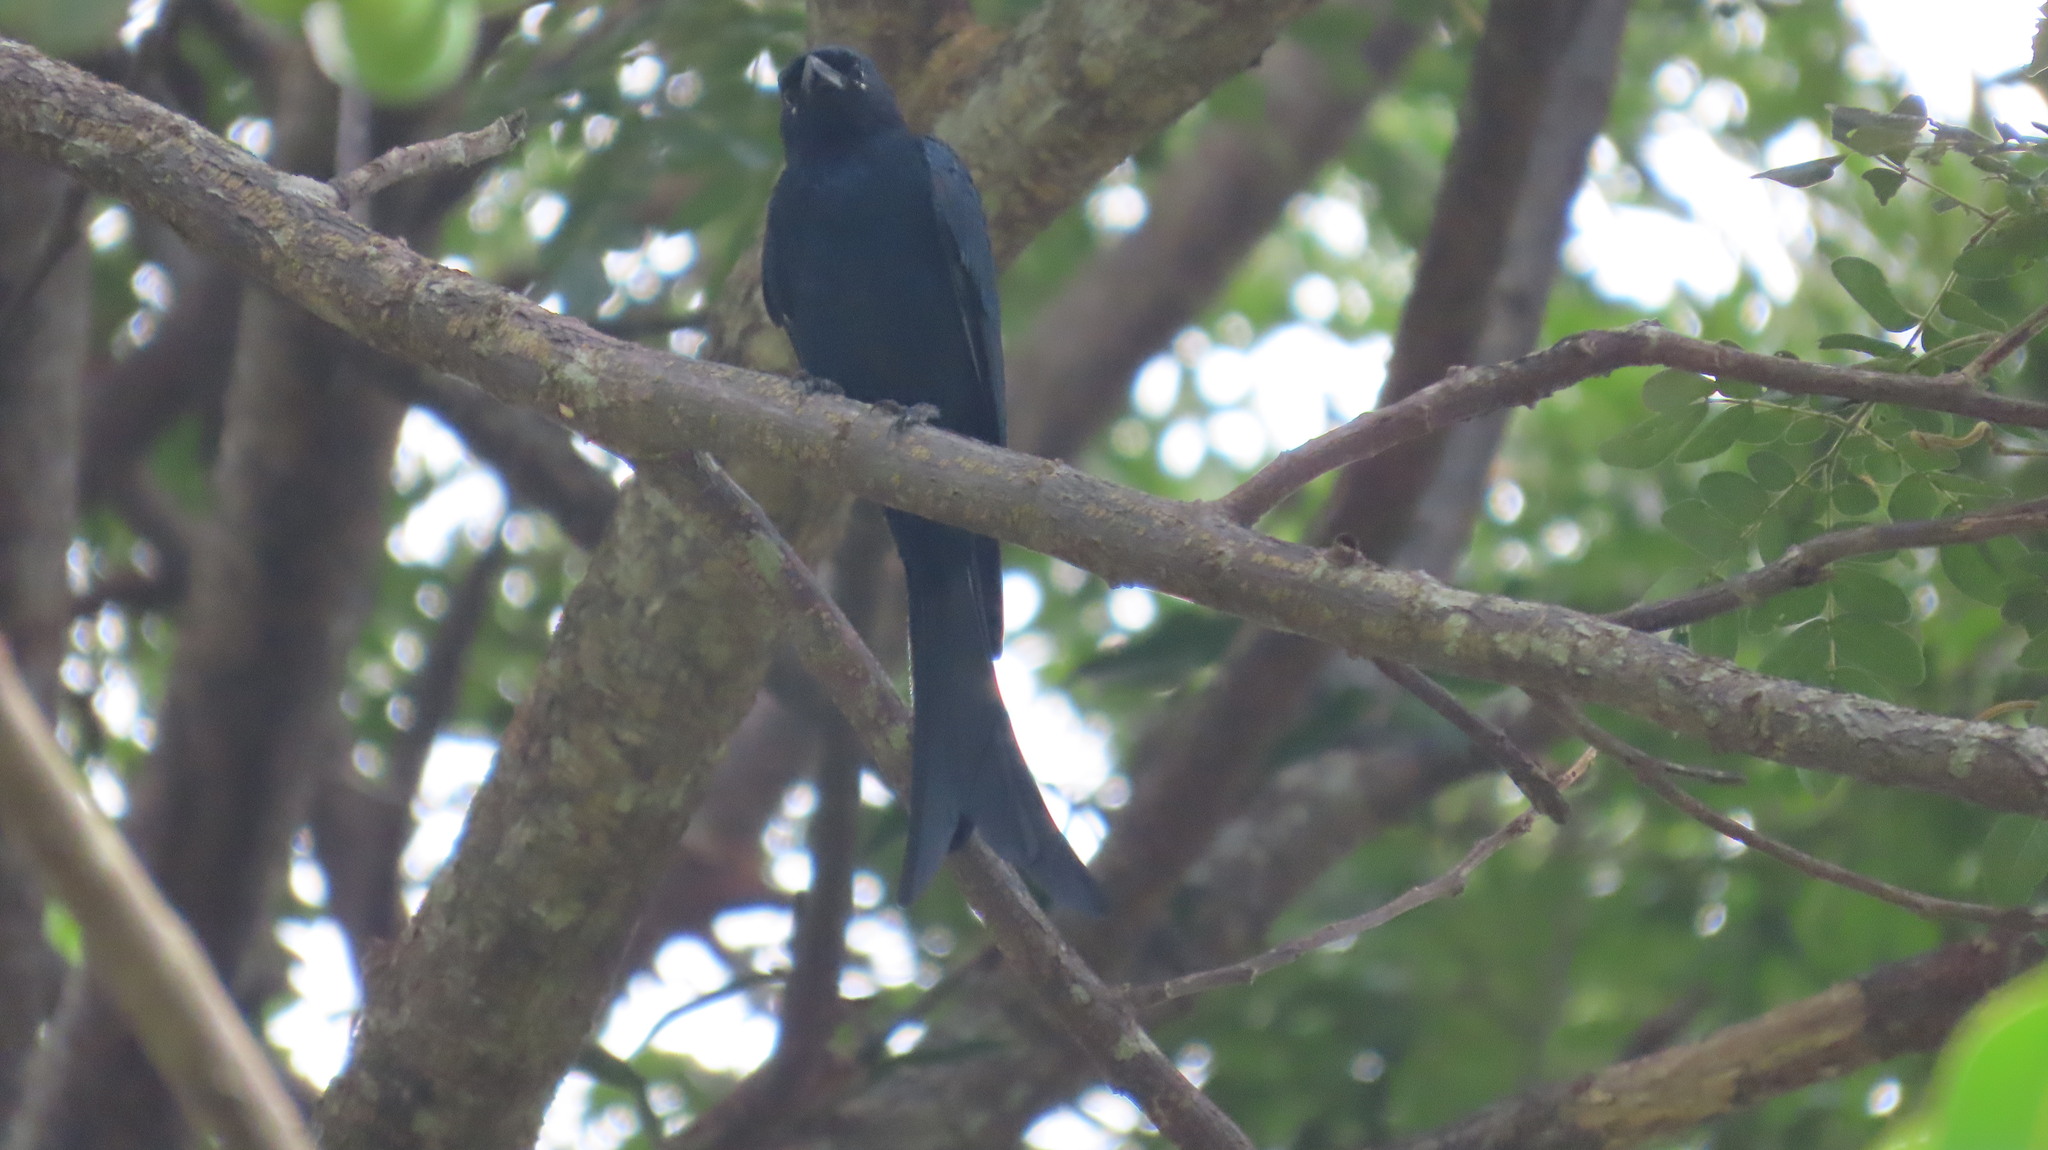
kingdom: Animalia
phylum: Chordata
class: Aves
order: Passeriformes
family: Dicruridae
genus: Dicrurus
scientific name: Dicrurus macrocercus
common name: Black drongo
